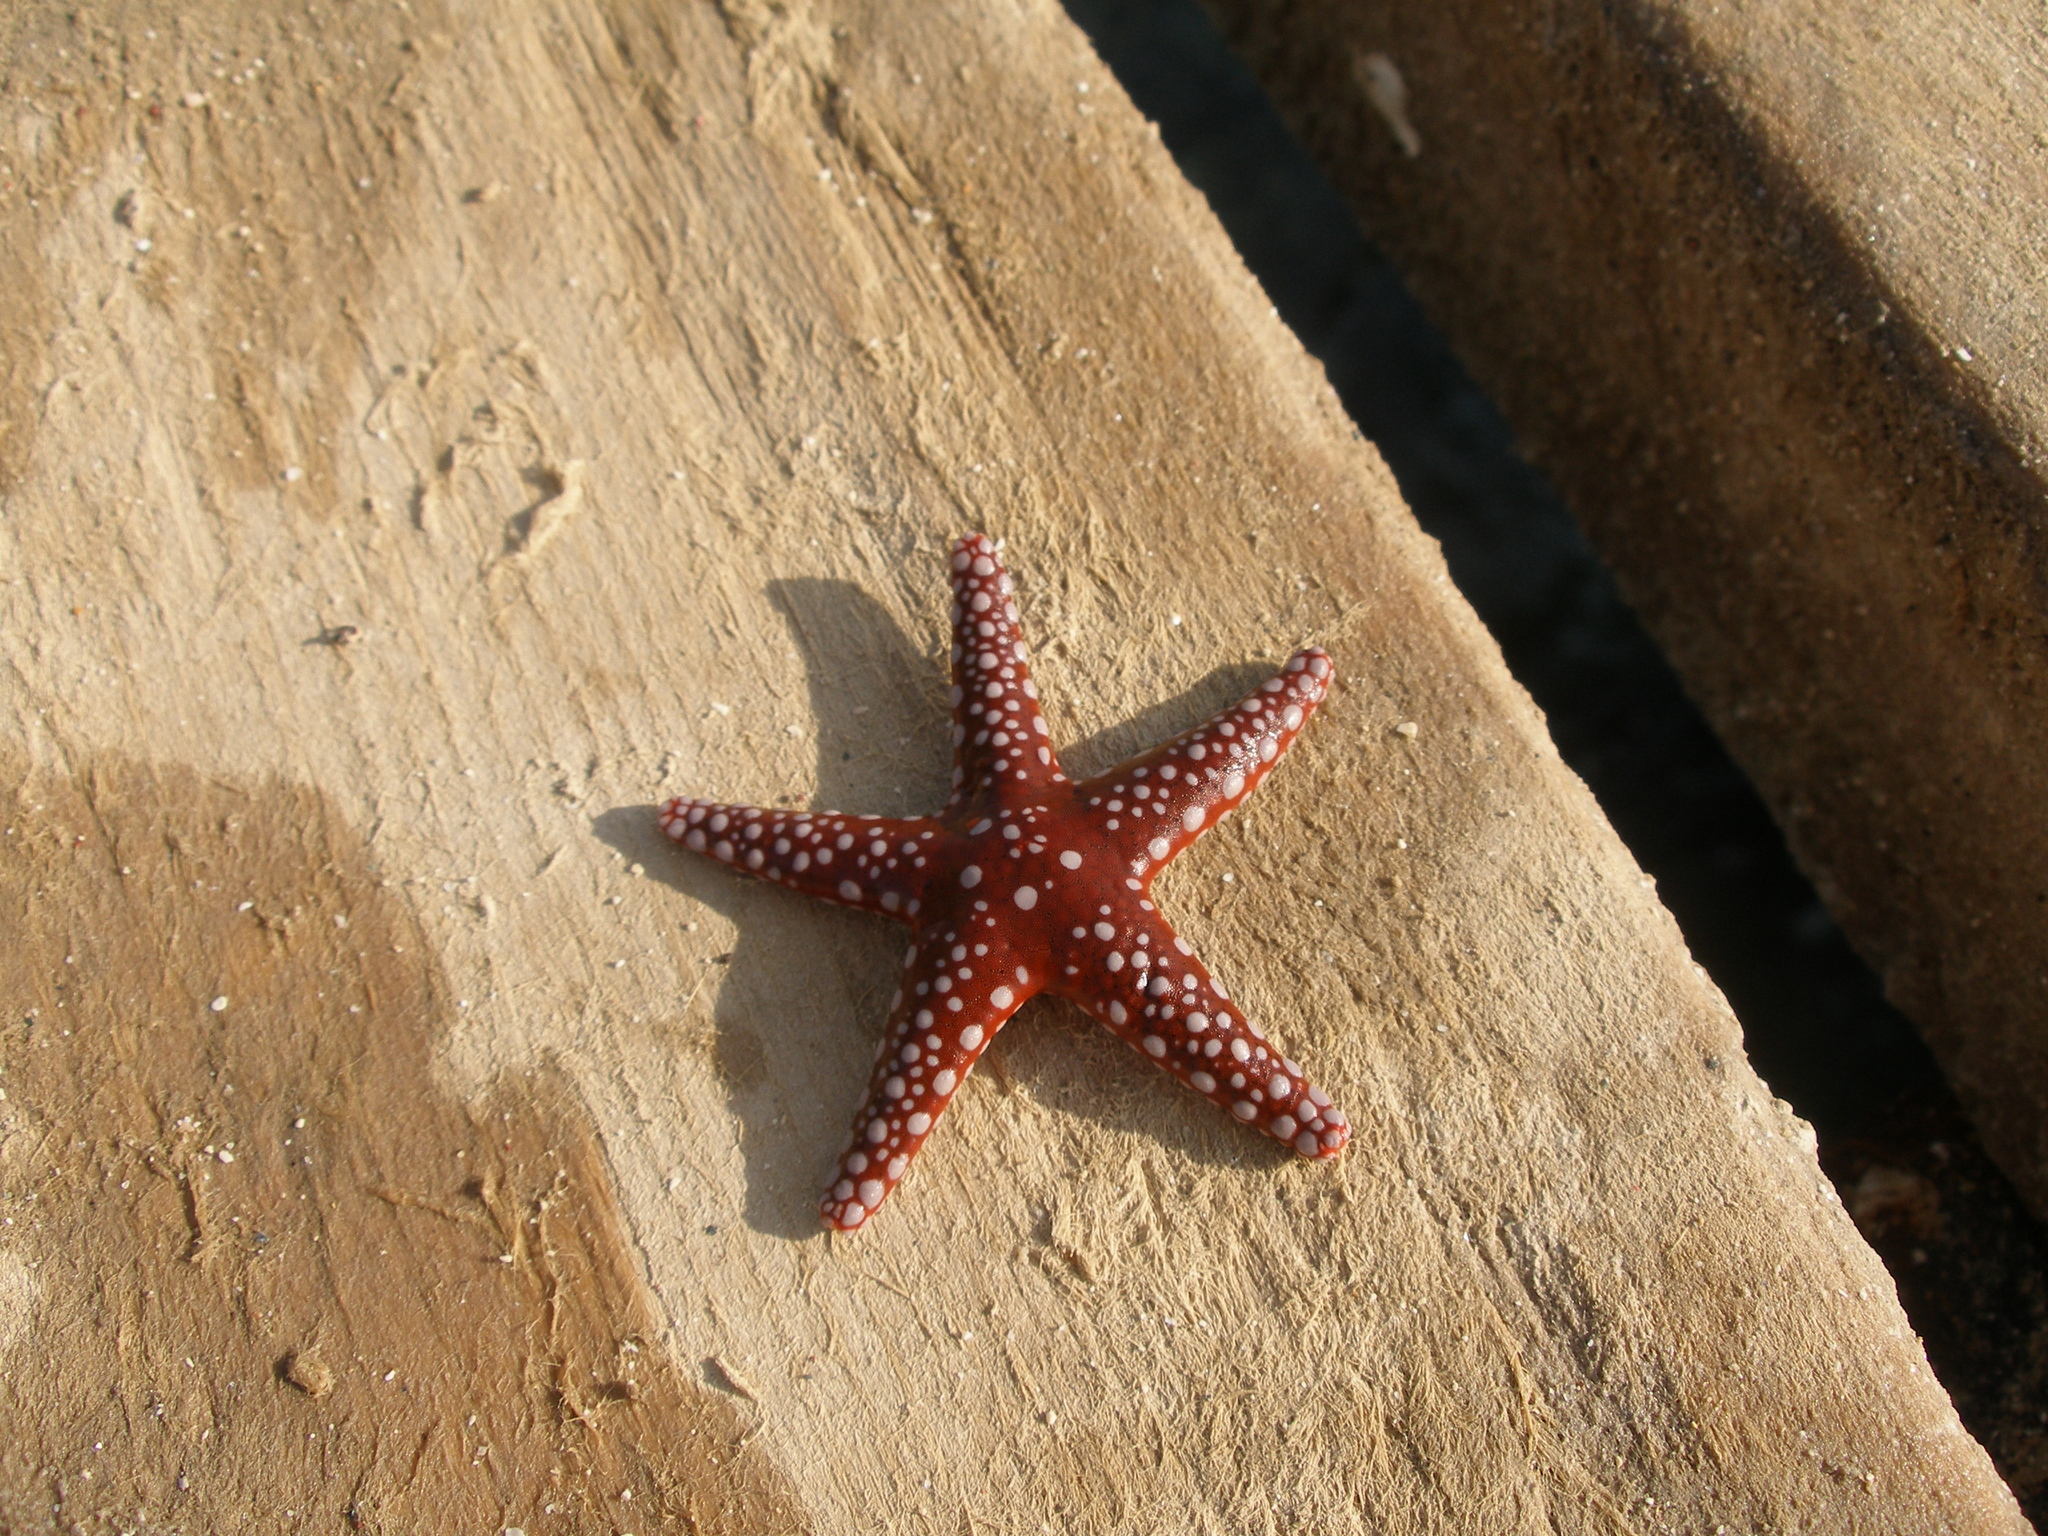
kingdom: Animalia
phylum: Echinodermata
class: Asteroidea
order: Valvatida
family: Goniasteridae
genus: Fromia
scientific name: Fromia ghardaqana
